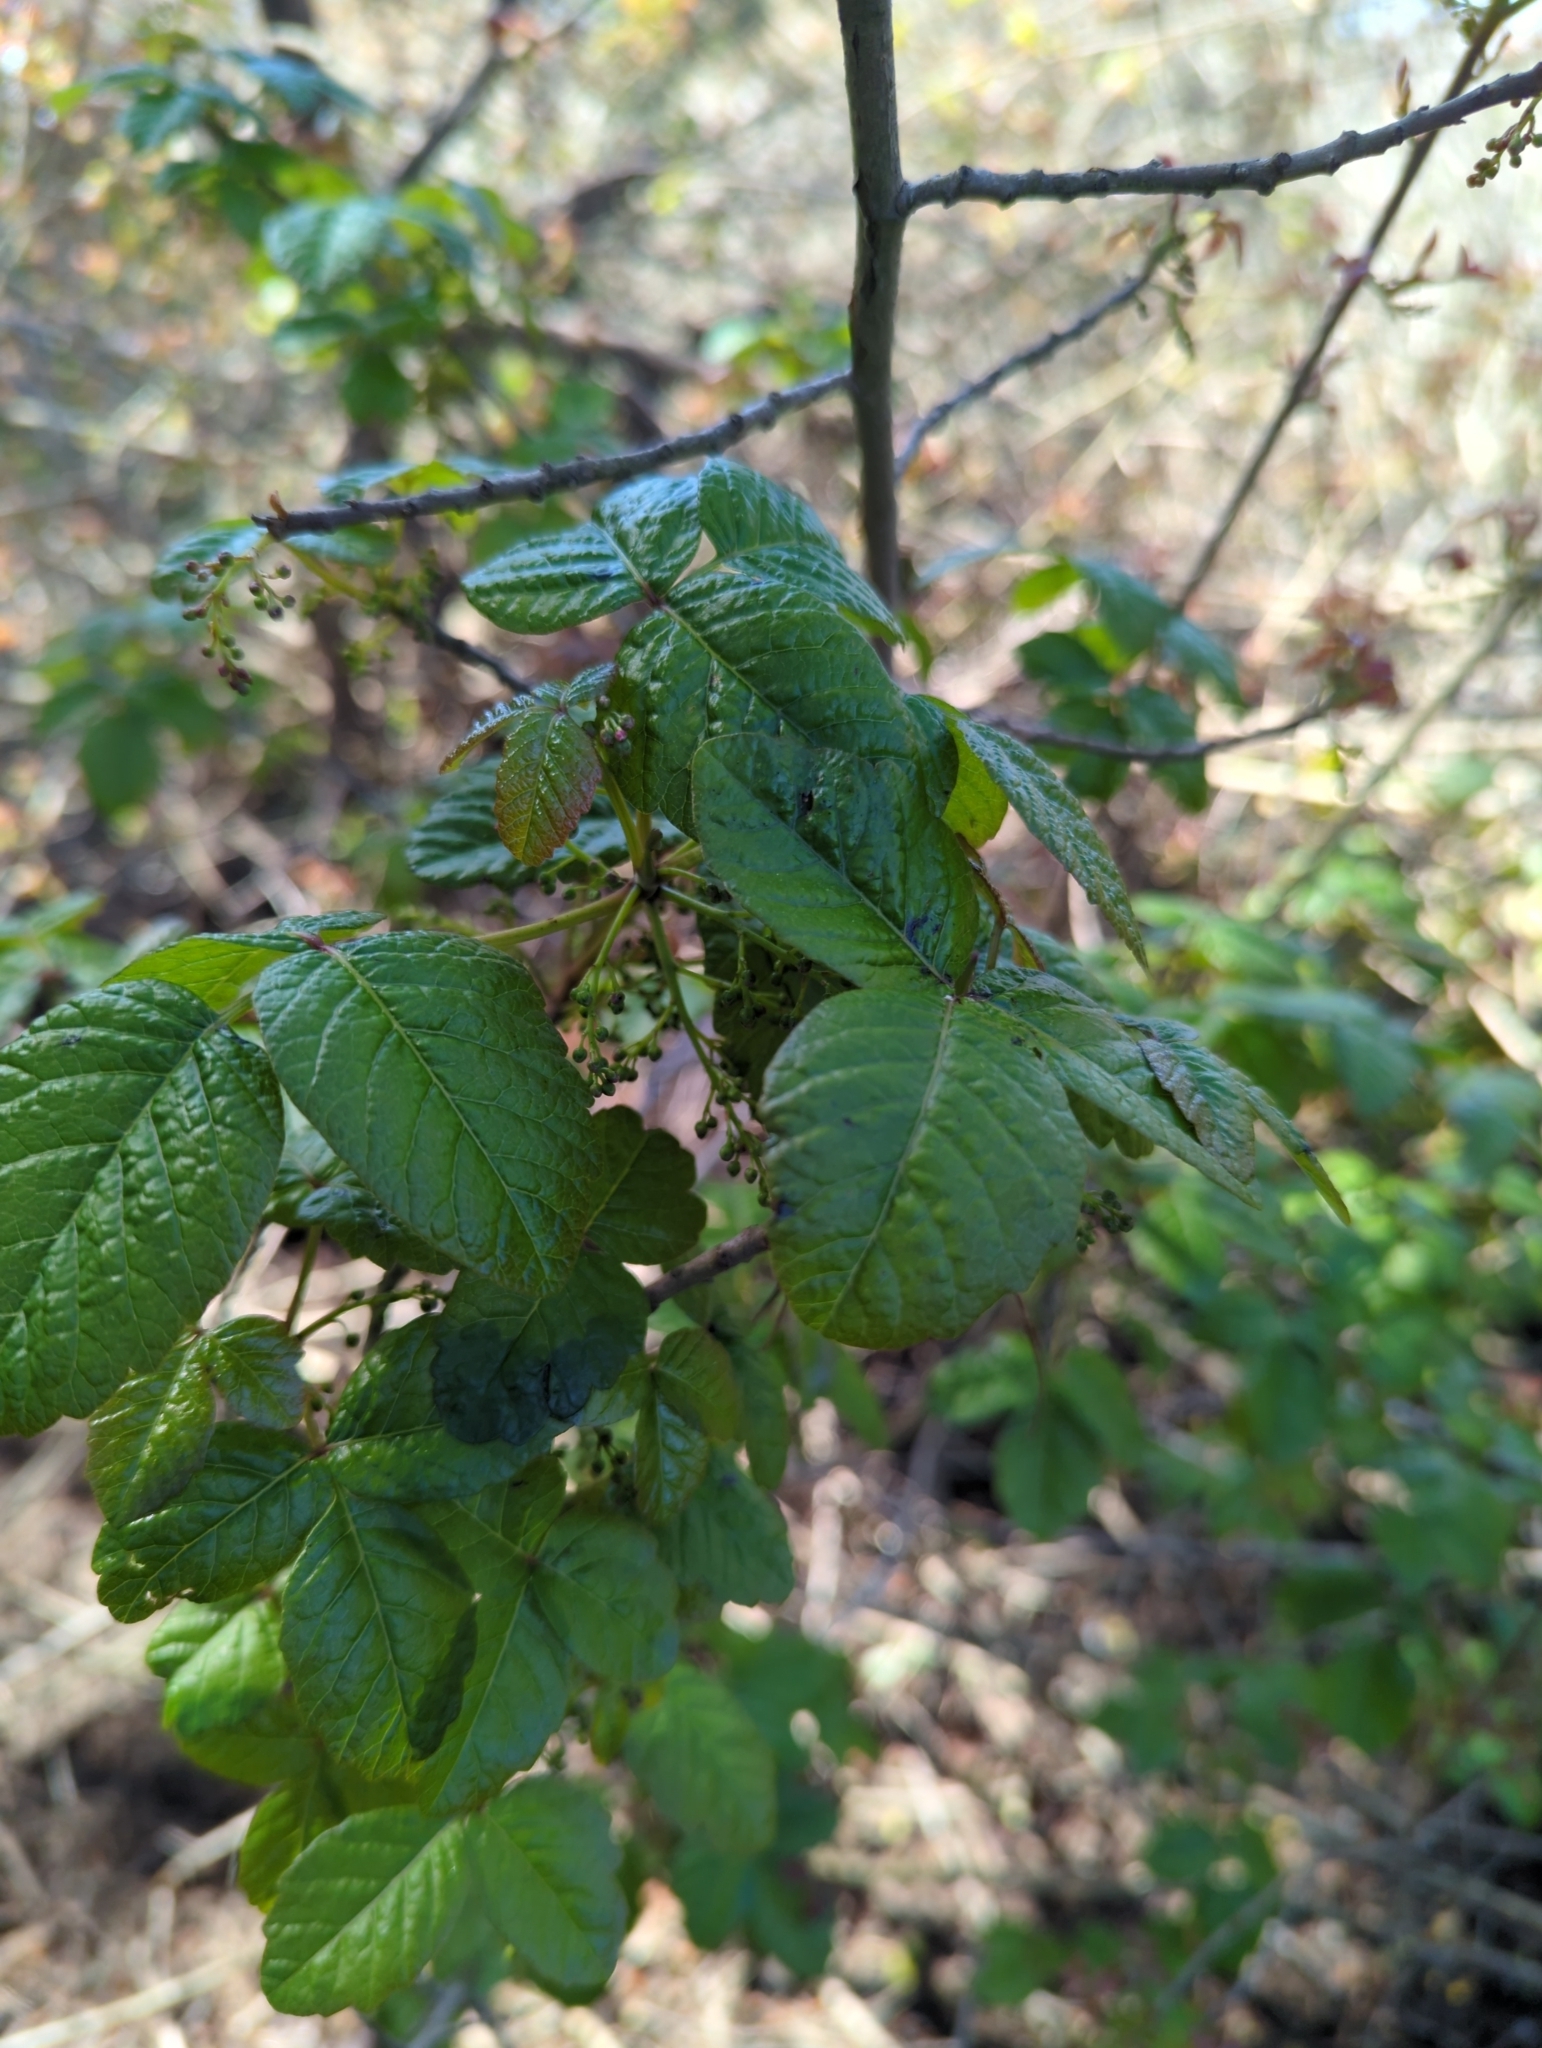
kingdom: Plantae
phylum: Tracheophyta
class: Magnoliopsida
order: Sapindales
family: Anacardiaceae
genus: Toxicodendron
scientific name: Toxicodendron diversilobum
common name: Pacific poison-oak
